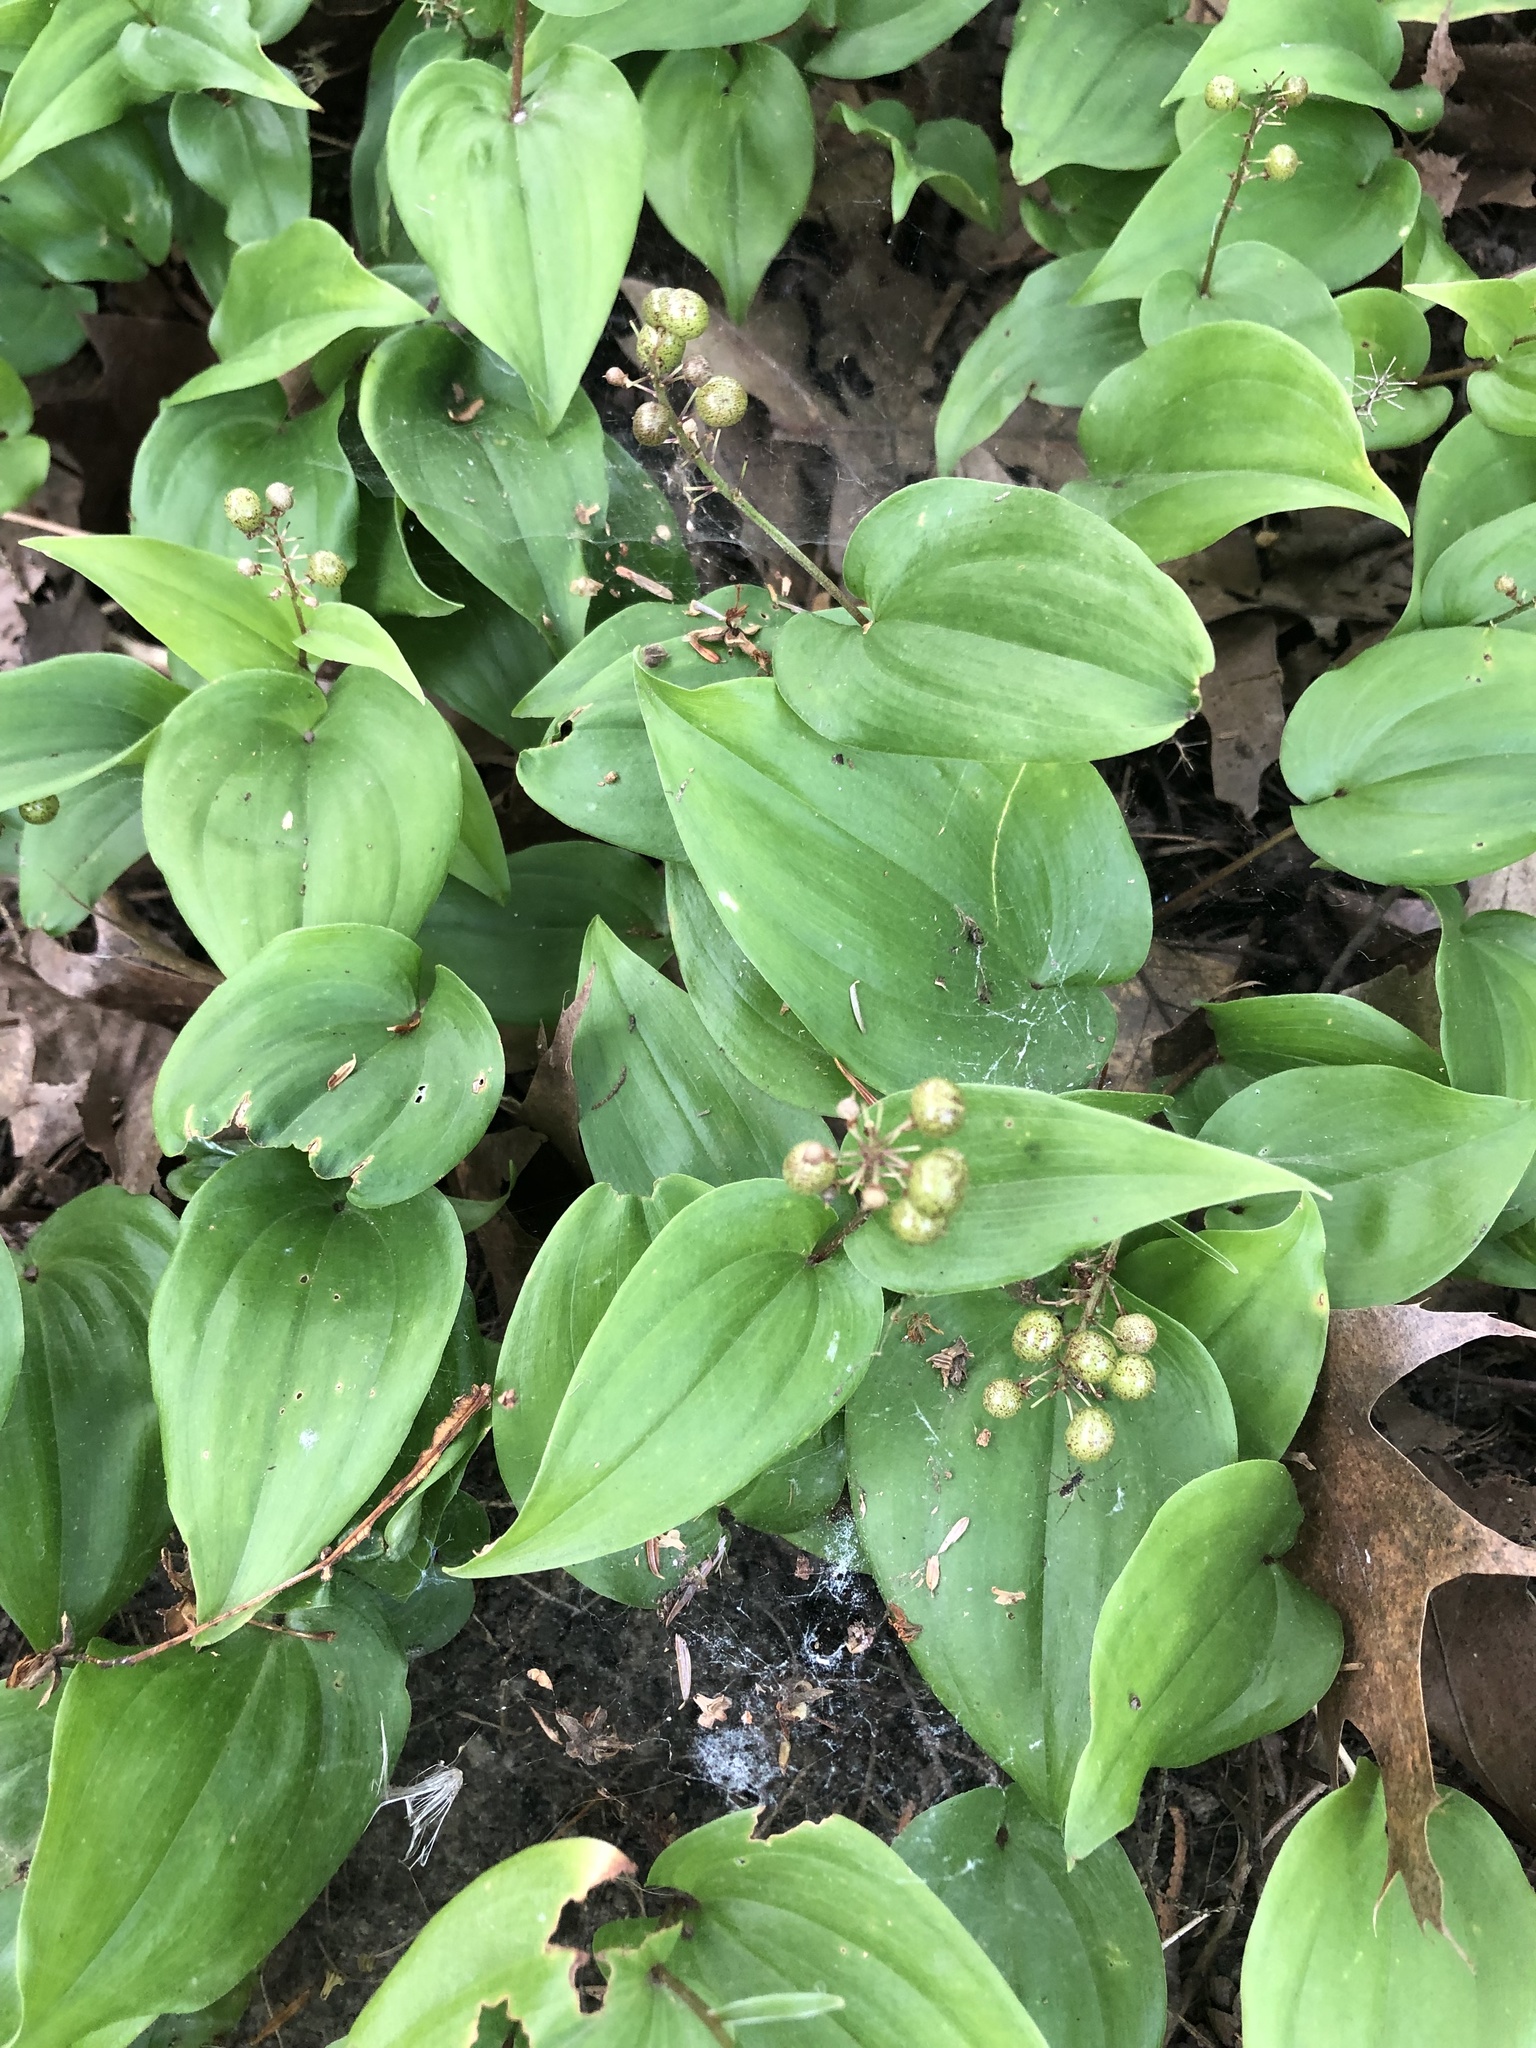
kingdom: Plantae
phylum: Tracheophyta
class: Liliopsida
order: Asparagales
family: Asparagaceae
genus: Maianthemum
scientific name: Maianthemum canadense
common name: False lily-of-the-valley
